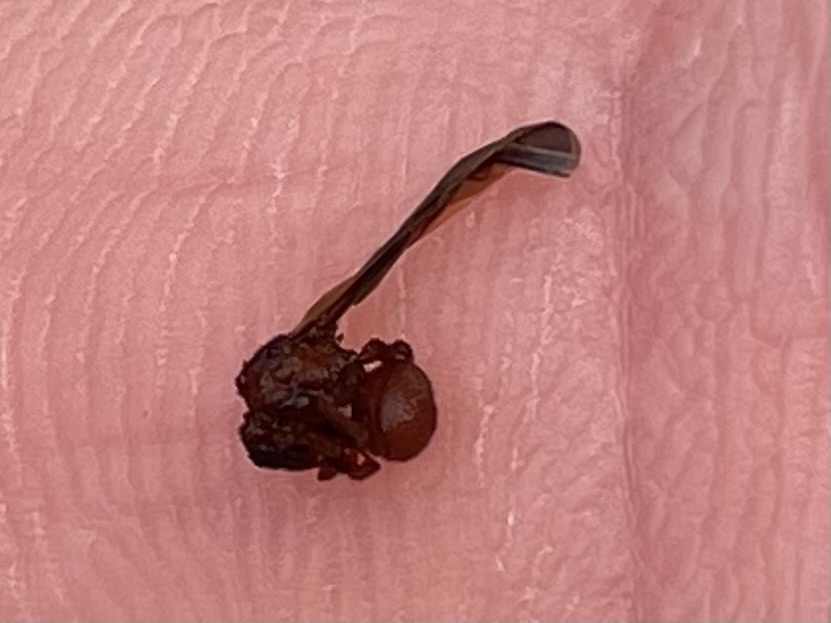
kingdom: Animalia
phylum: Arthropoda
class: Insecta
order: Hymenoptera
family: Formicidae
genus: Mycetomoellerius
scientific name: Mycetomoellerius
